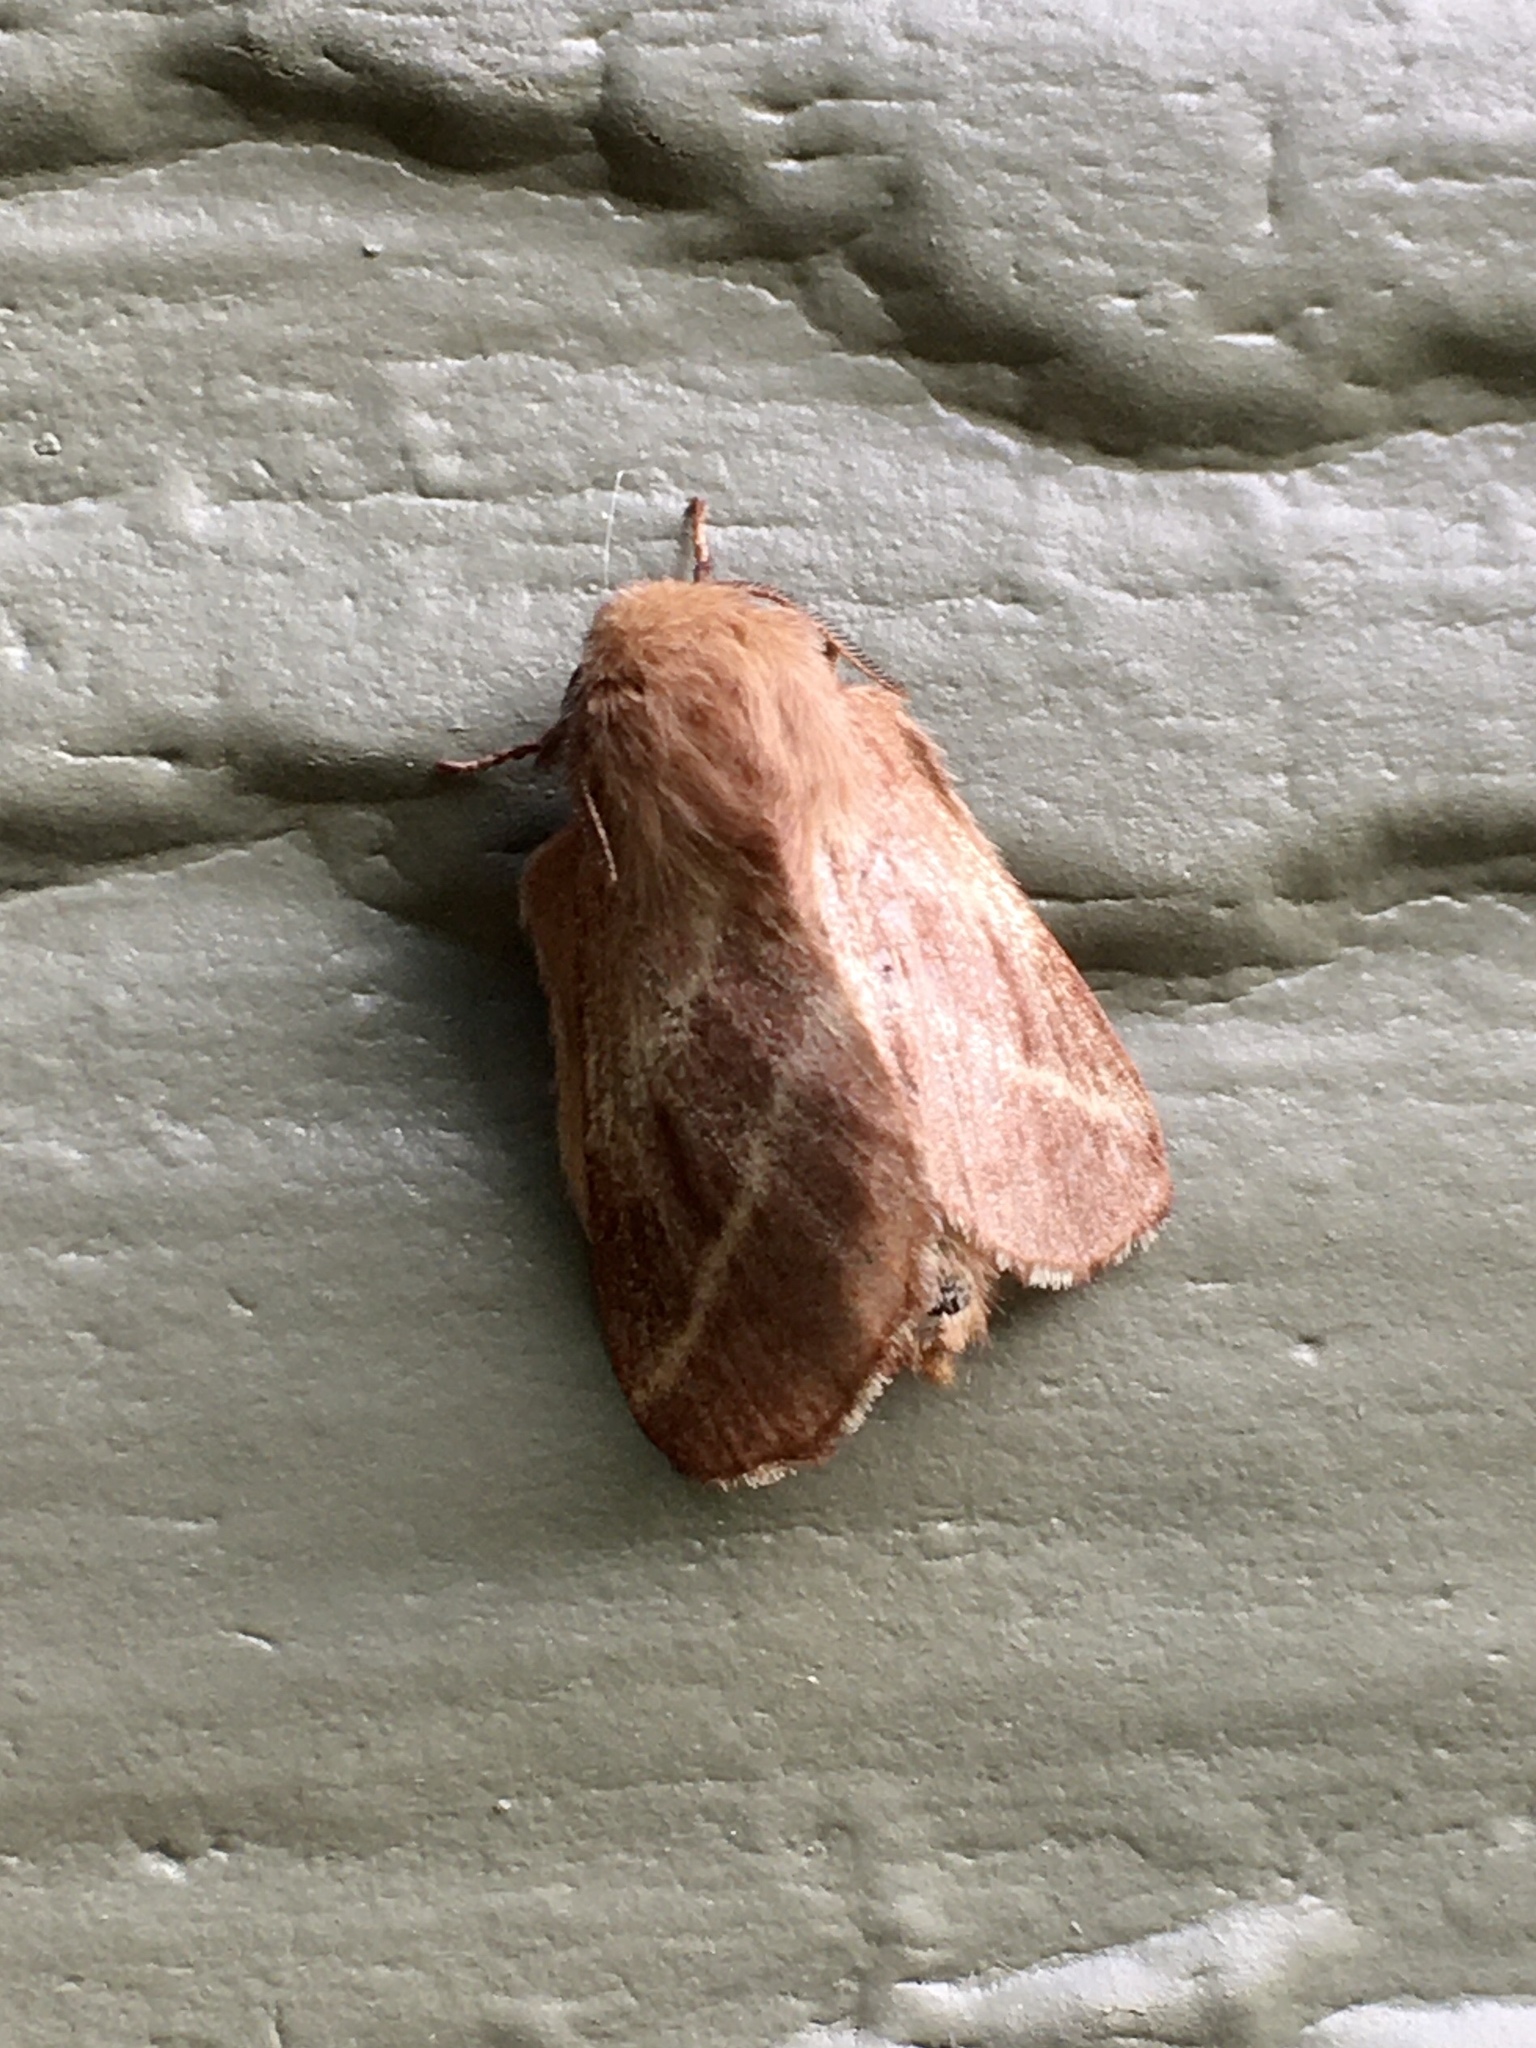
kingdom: Animalia
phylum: Arthropoda
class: Insecta
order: Lepidoptera
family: Lasiocampidae
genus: Malacosoma
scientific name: Malacosoma americana
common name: Eastern tent caterpillar moth
